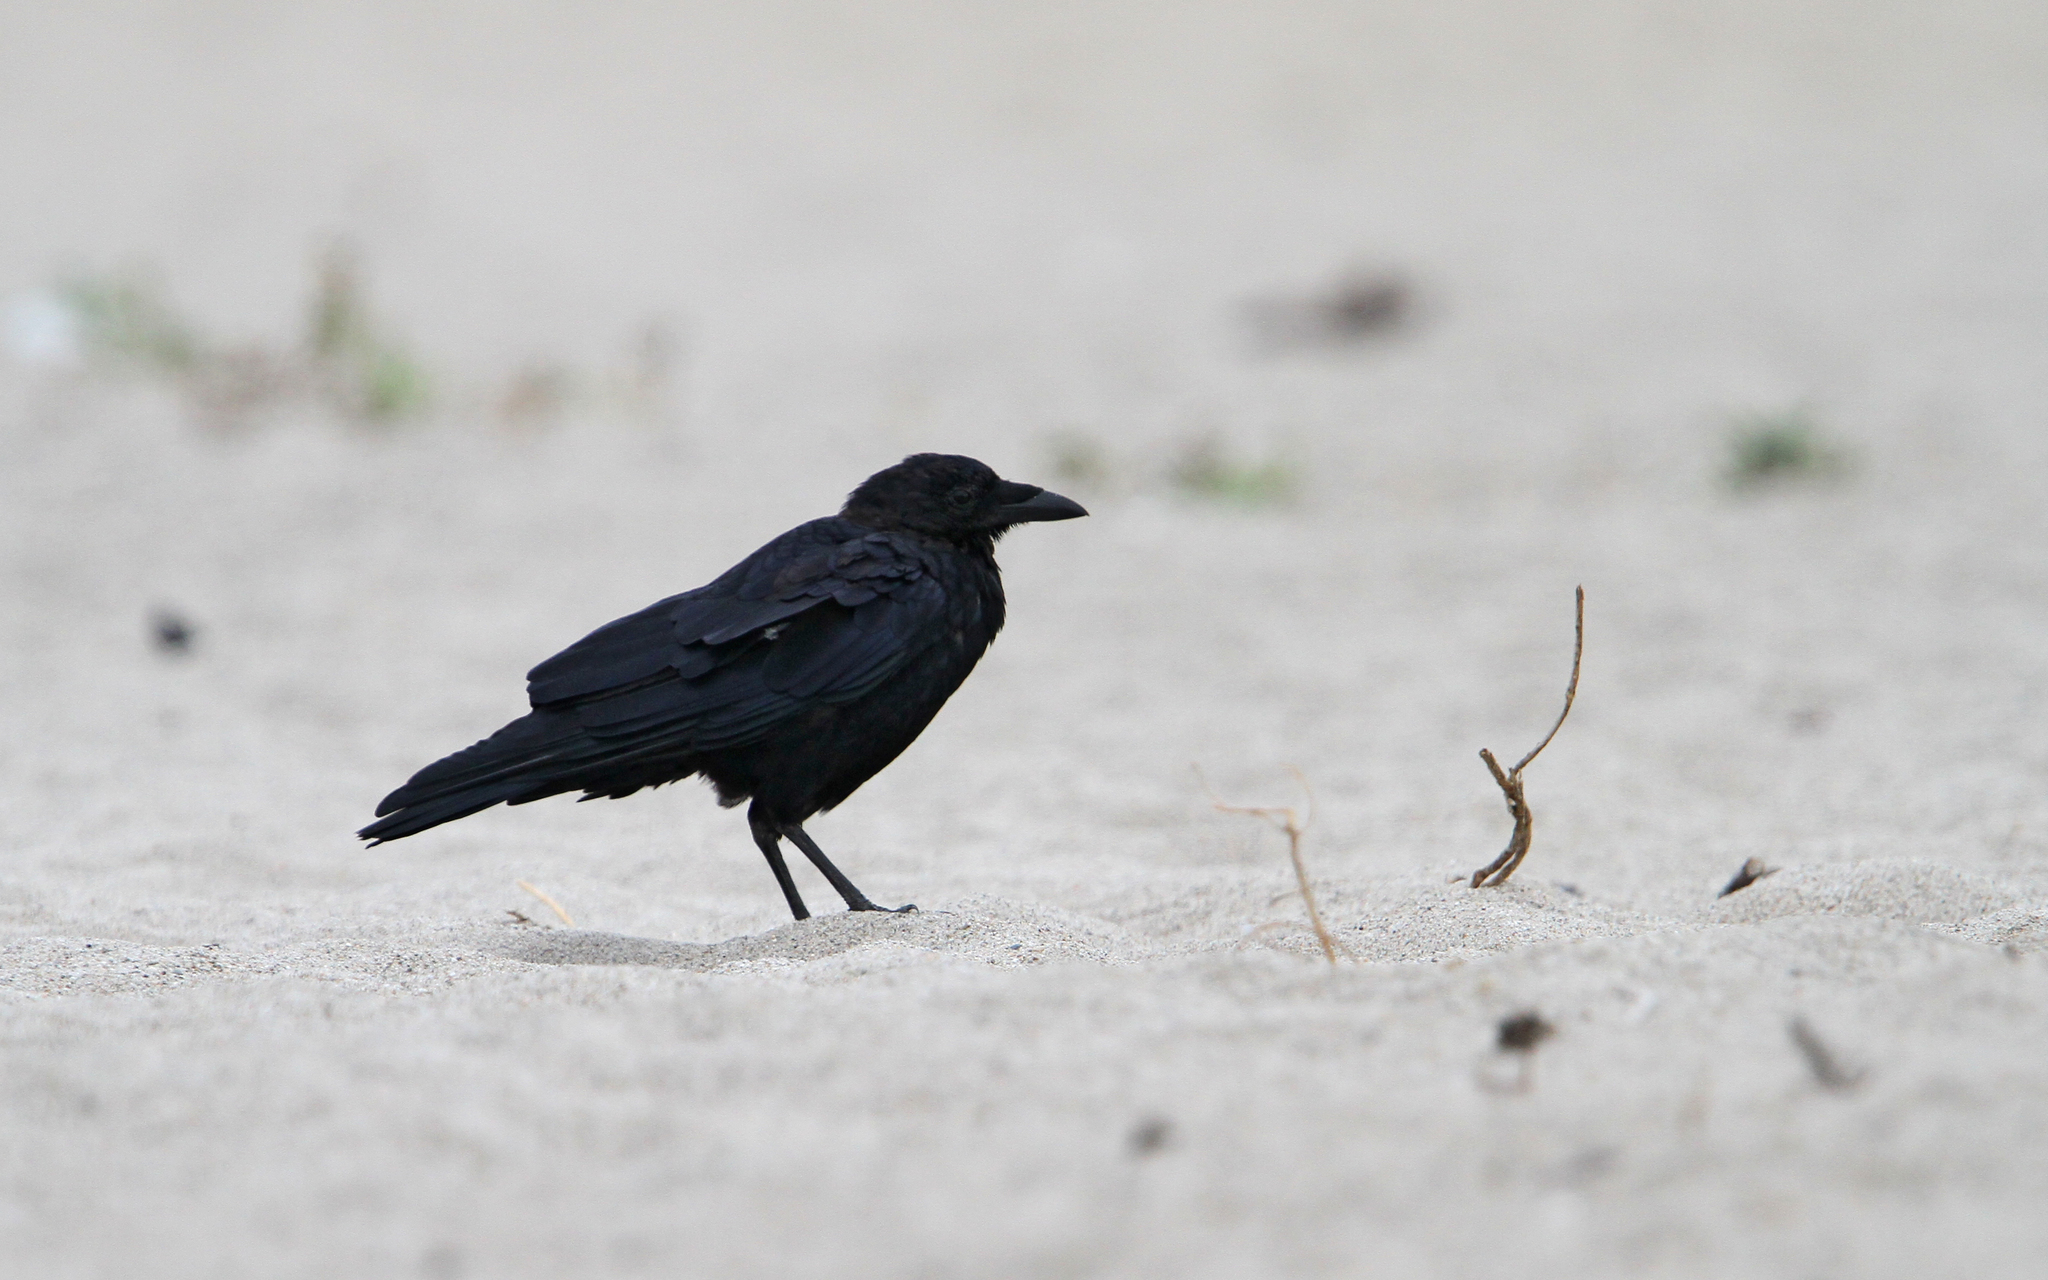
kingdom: Animalia
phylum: Chordata
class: Aves
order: Passeriformes
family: Corvidae
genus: Corvus
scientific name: Corvus brachyrhynchos
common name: American crow
